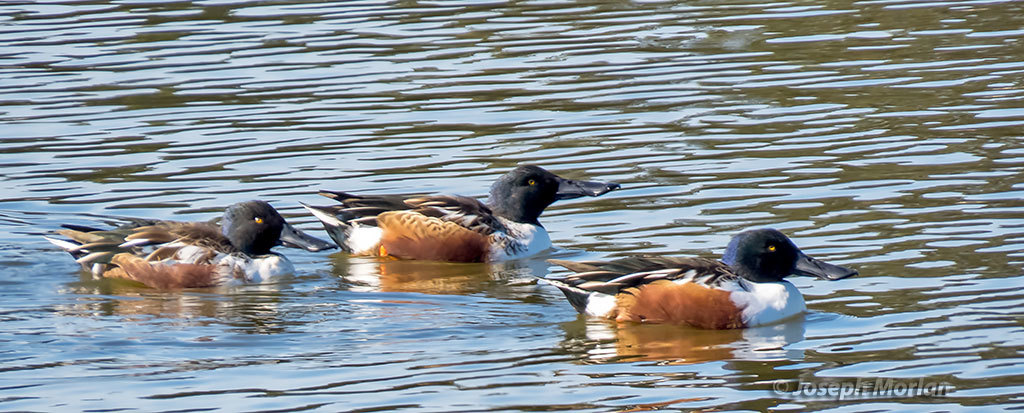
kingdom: Animalia
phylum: Chordata
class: Aves
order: Anseriformes
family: Anatidae
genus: Spatula
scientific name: Spatula clypeata
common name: Northern shoveler
